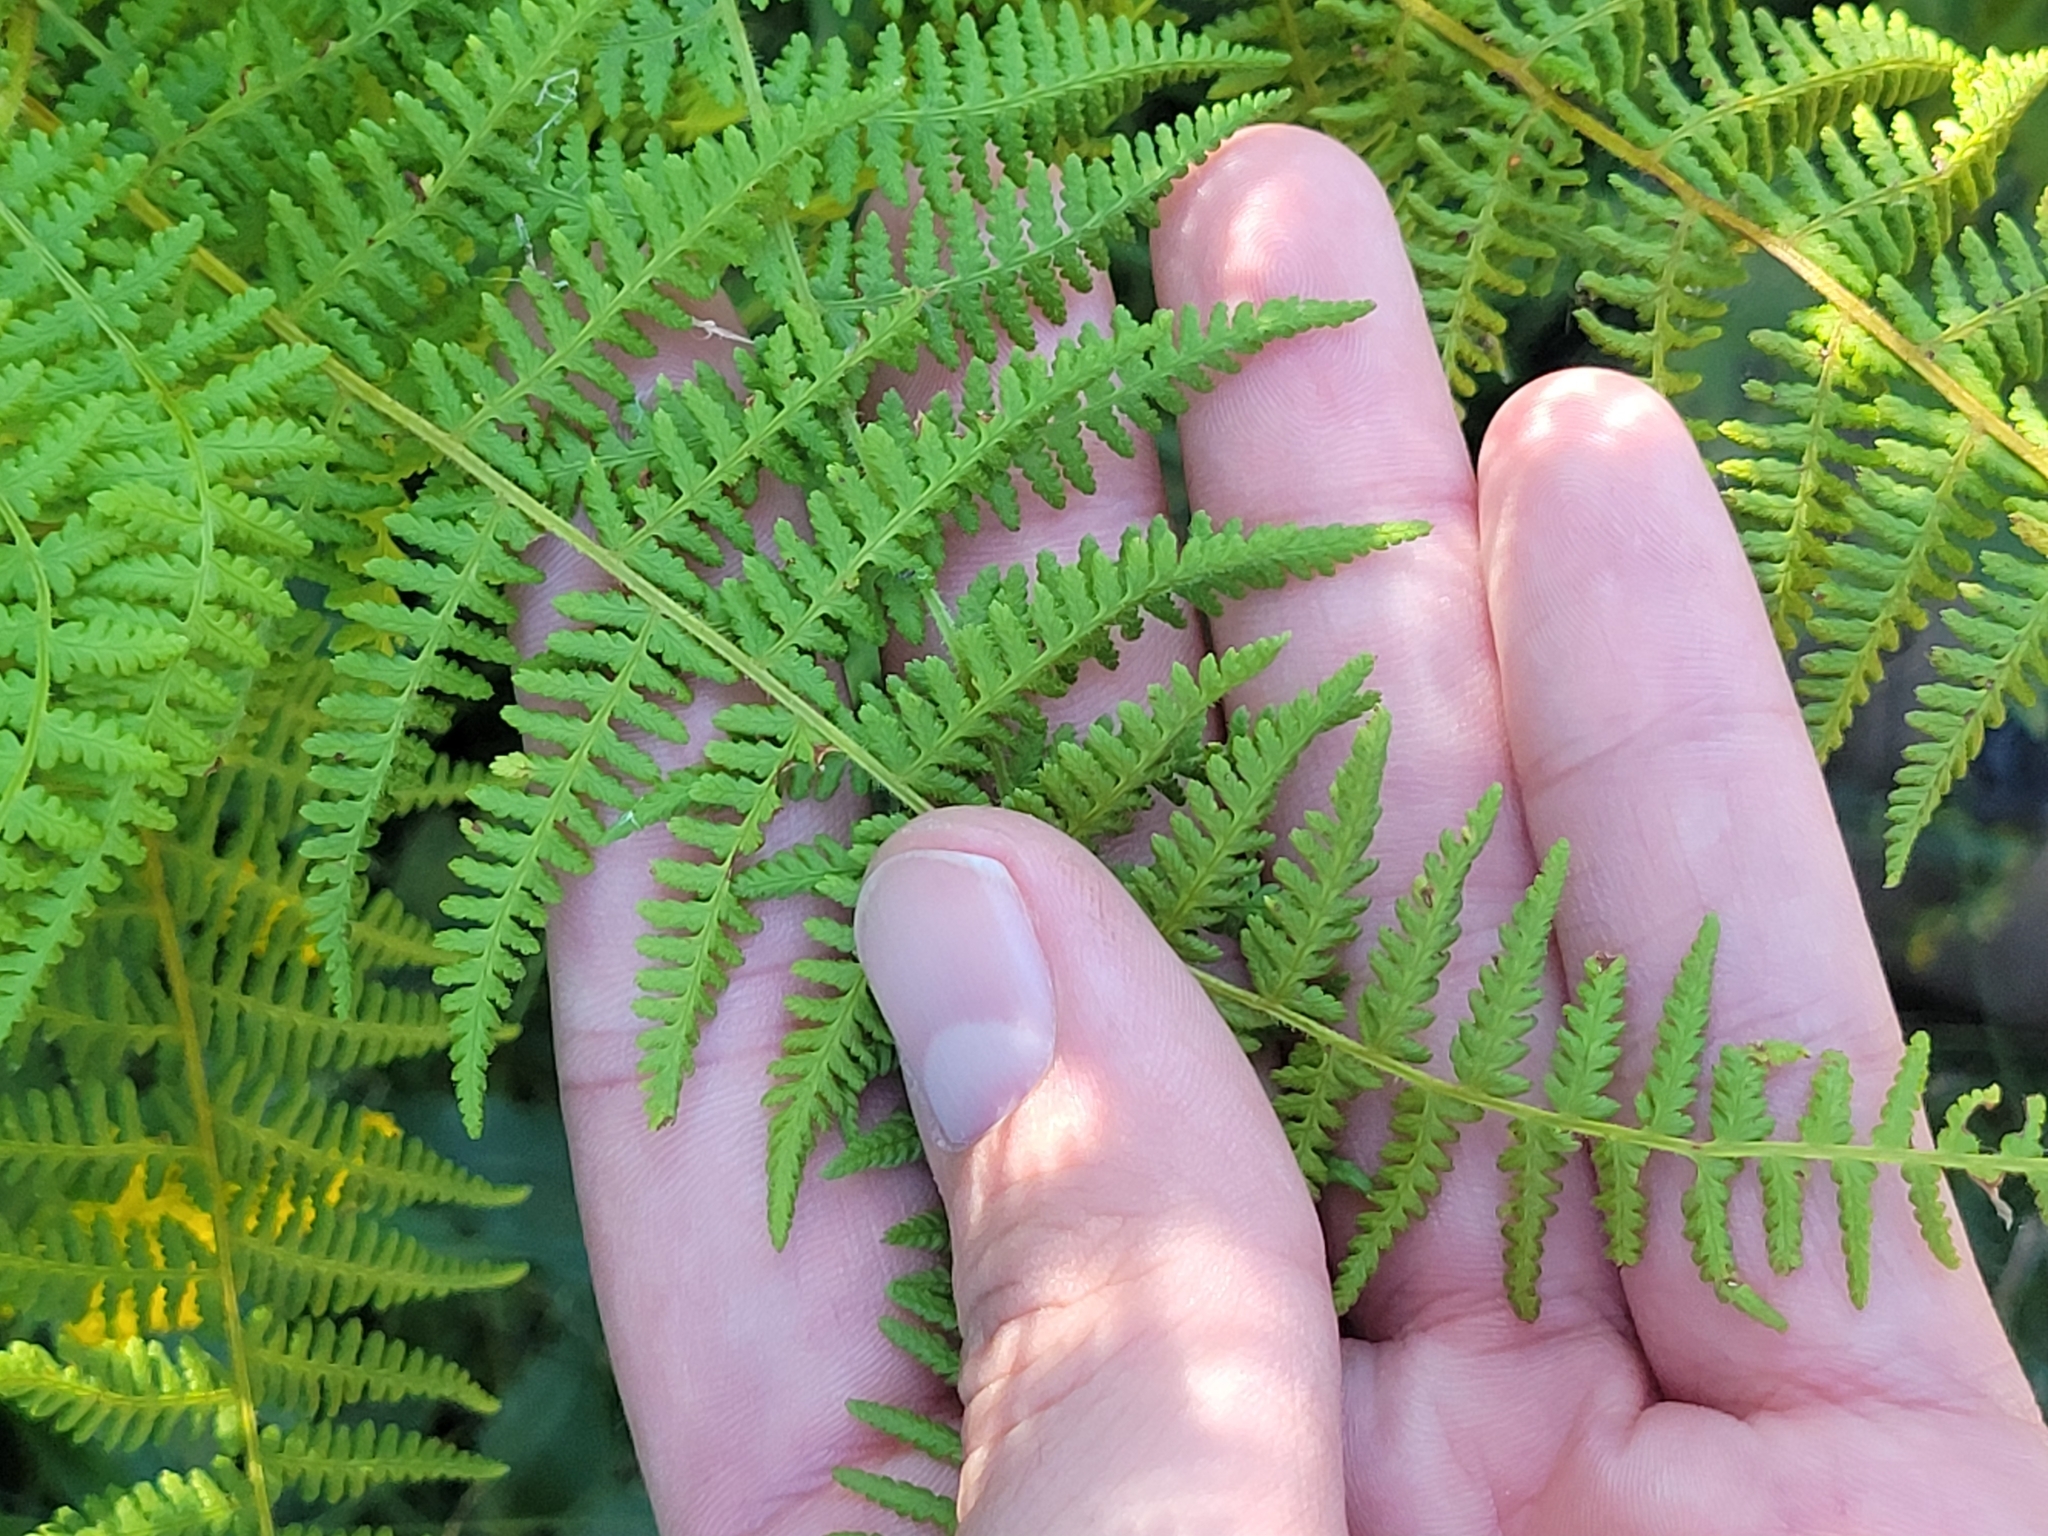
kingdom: Plantae
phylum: Tracheophyta
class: Polypodiopsida
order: Polypodiales
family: Dennstaedtiaceae
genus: Sitobolium
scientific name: Sitobolium punctilobum
